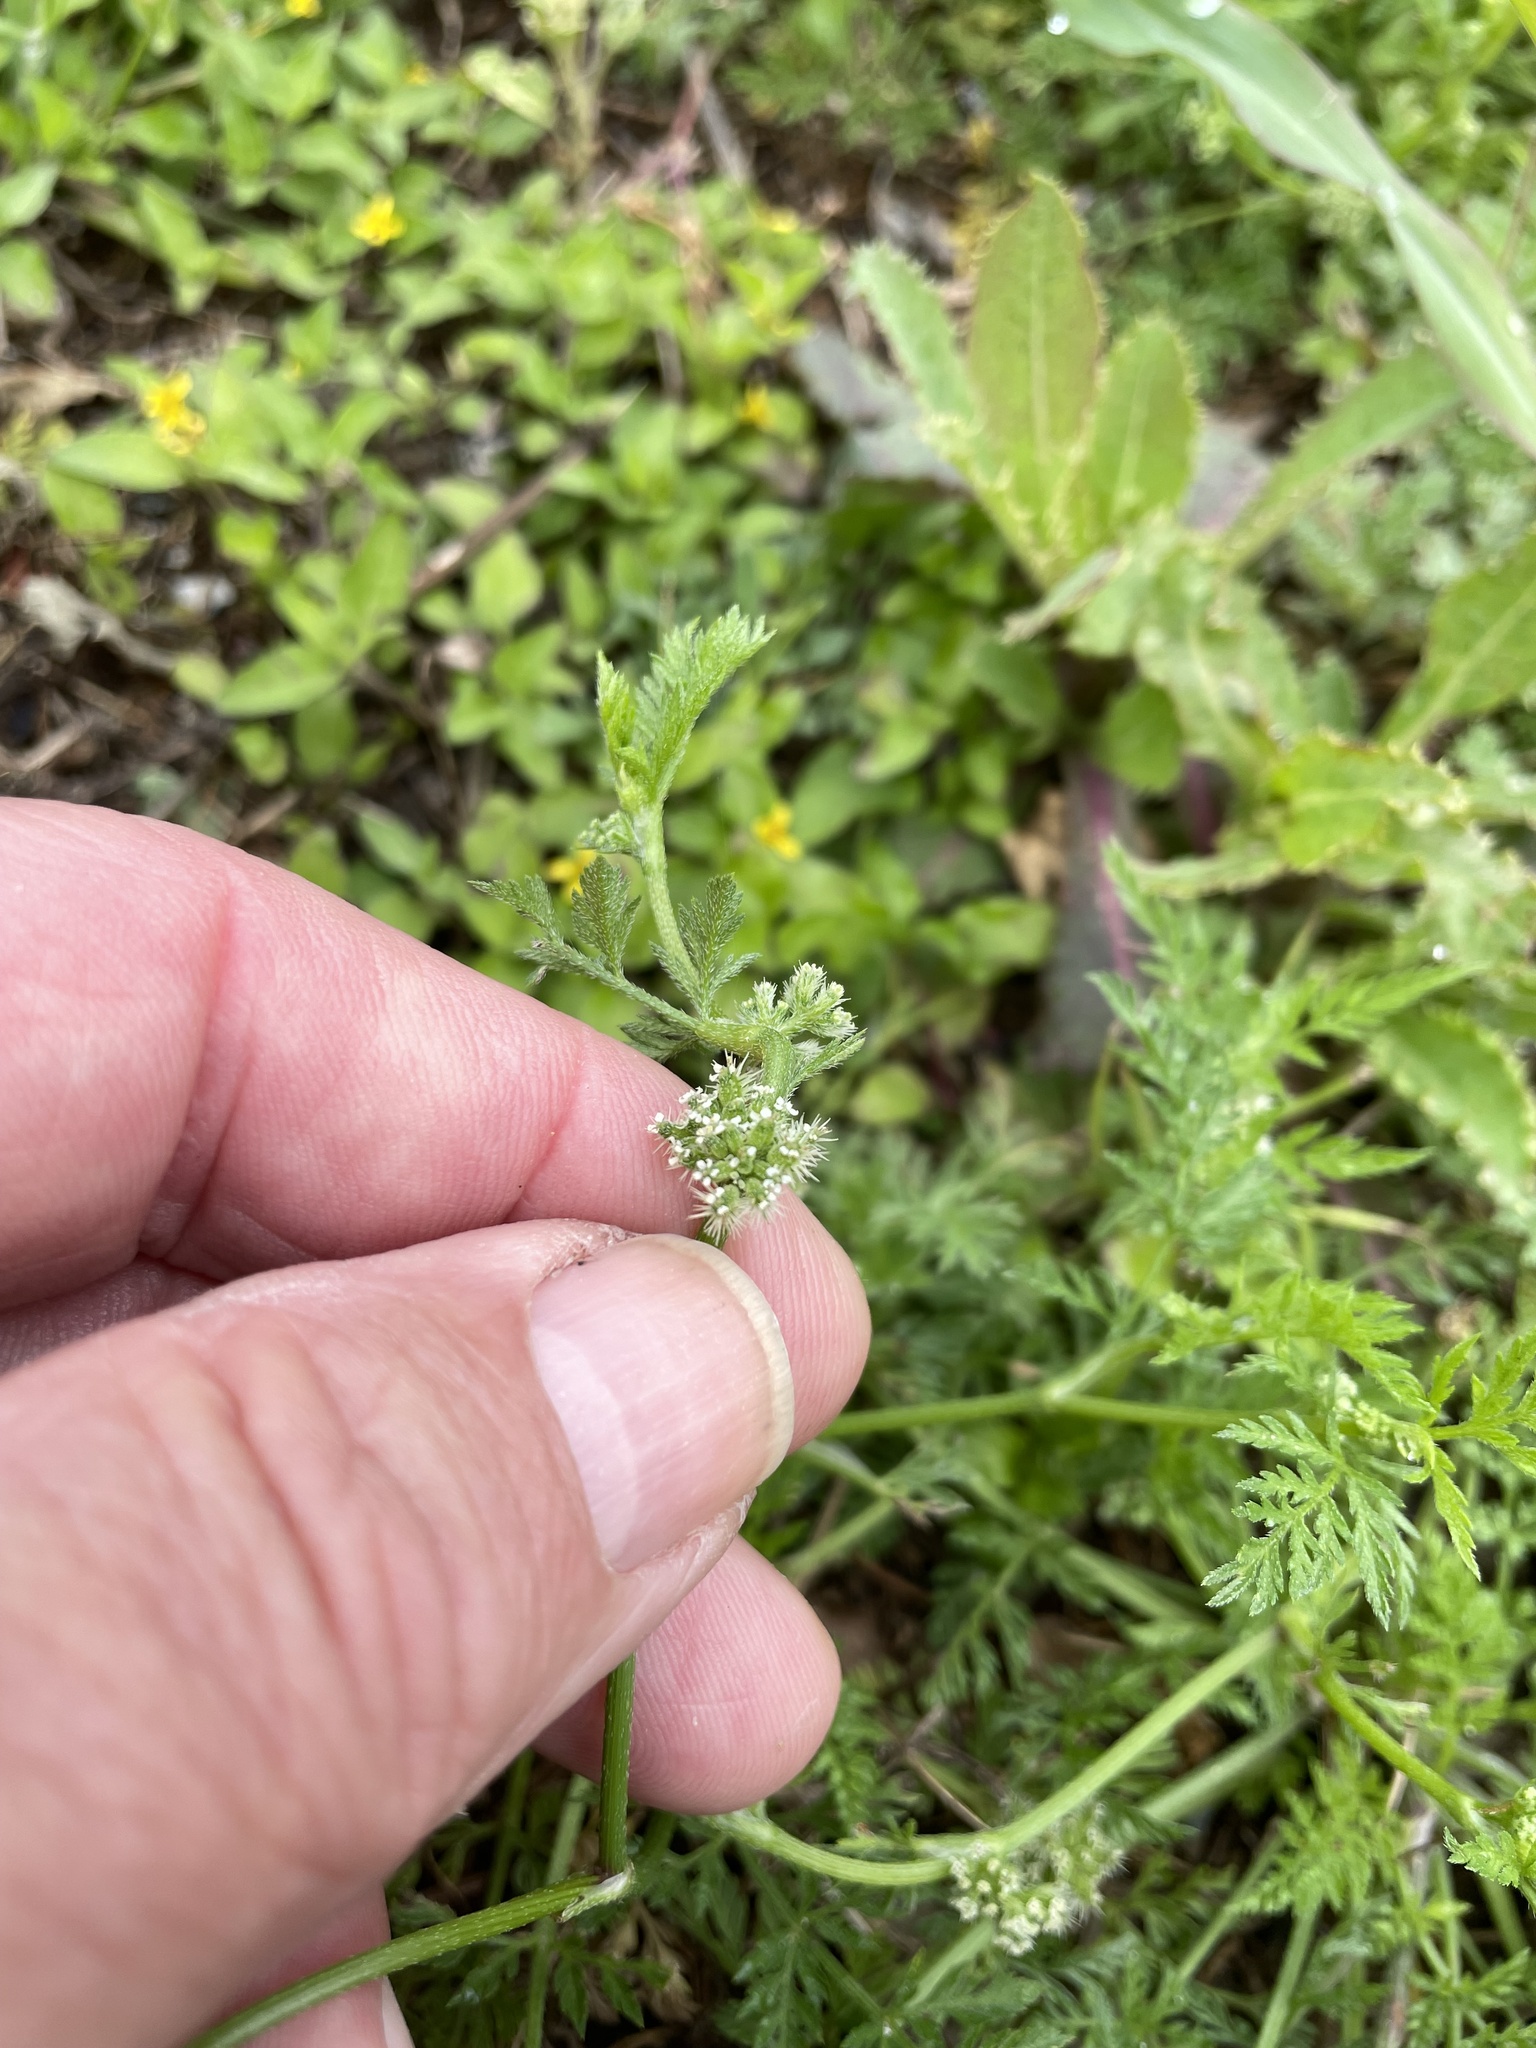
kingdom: Plantae
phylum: Tracheophyta
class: Magnoliopsida
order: Apiales
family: Apiaceae
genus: Torilis
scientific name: Torilis nodosa
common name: Knotted hedge-parsley
